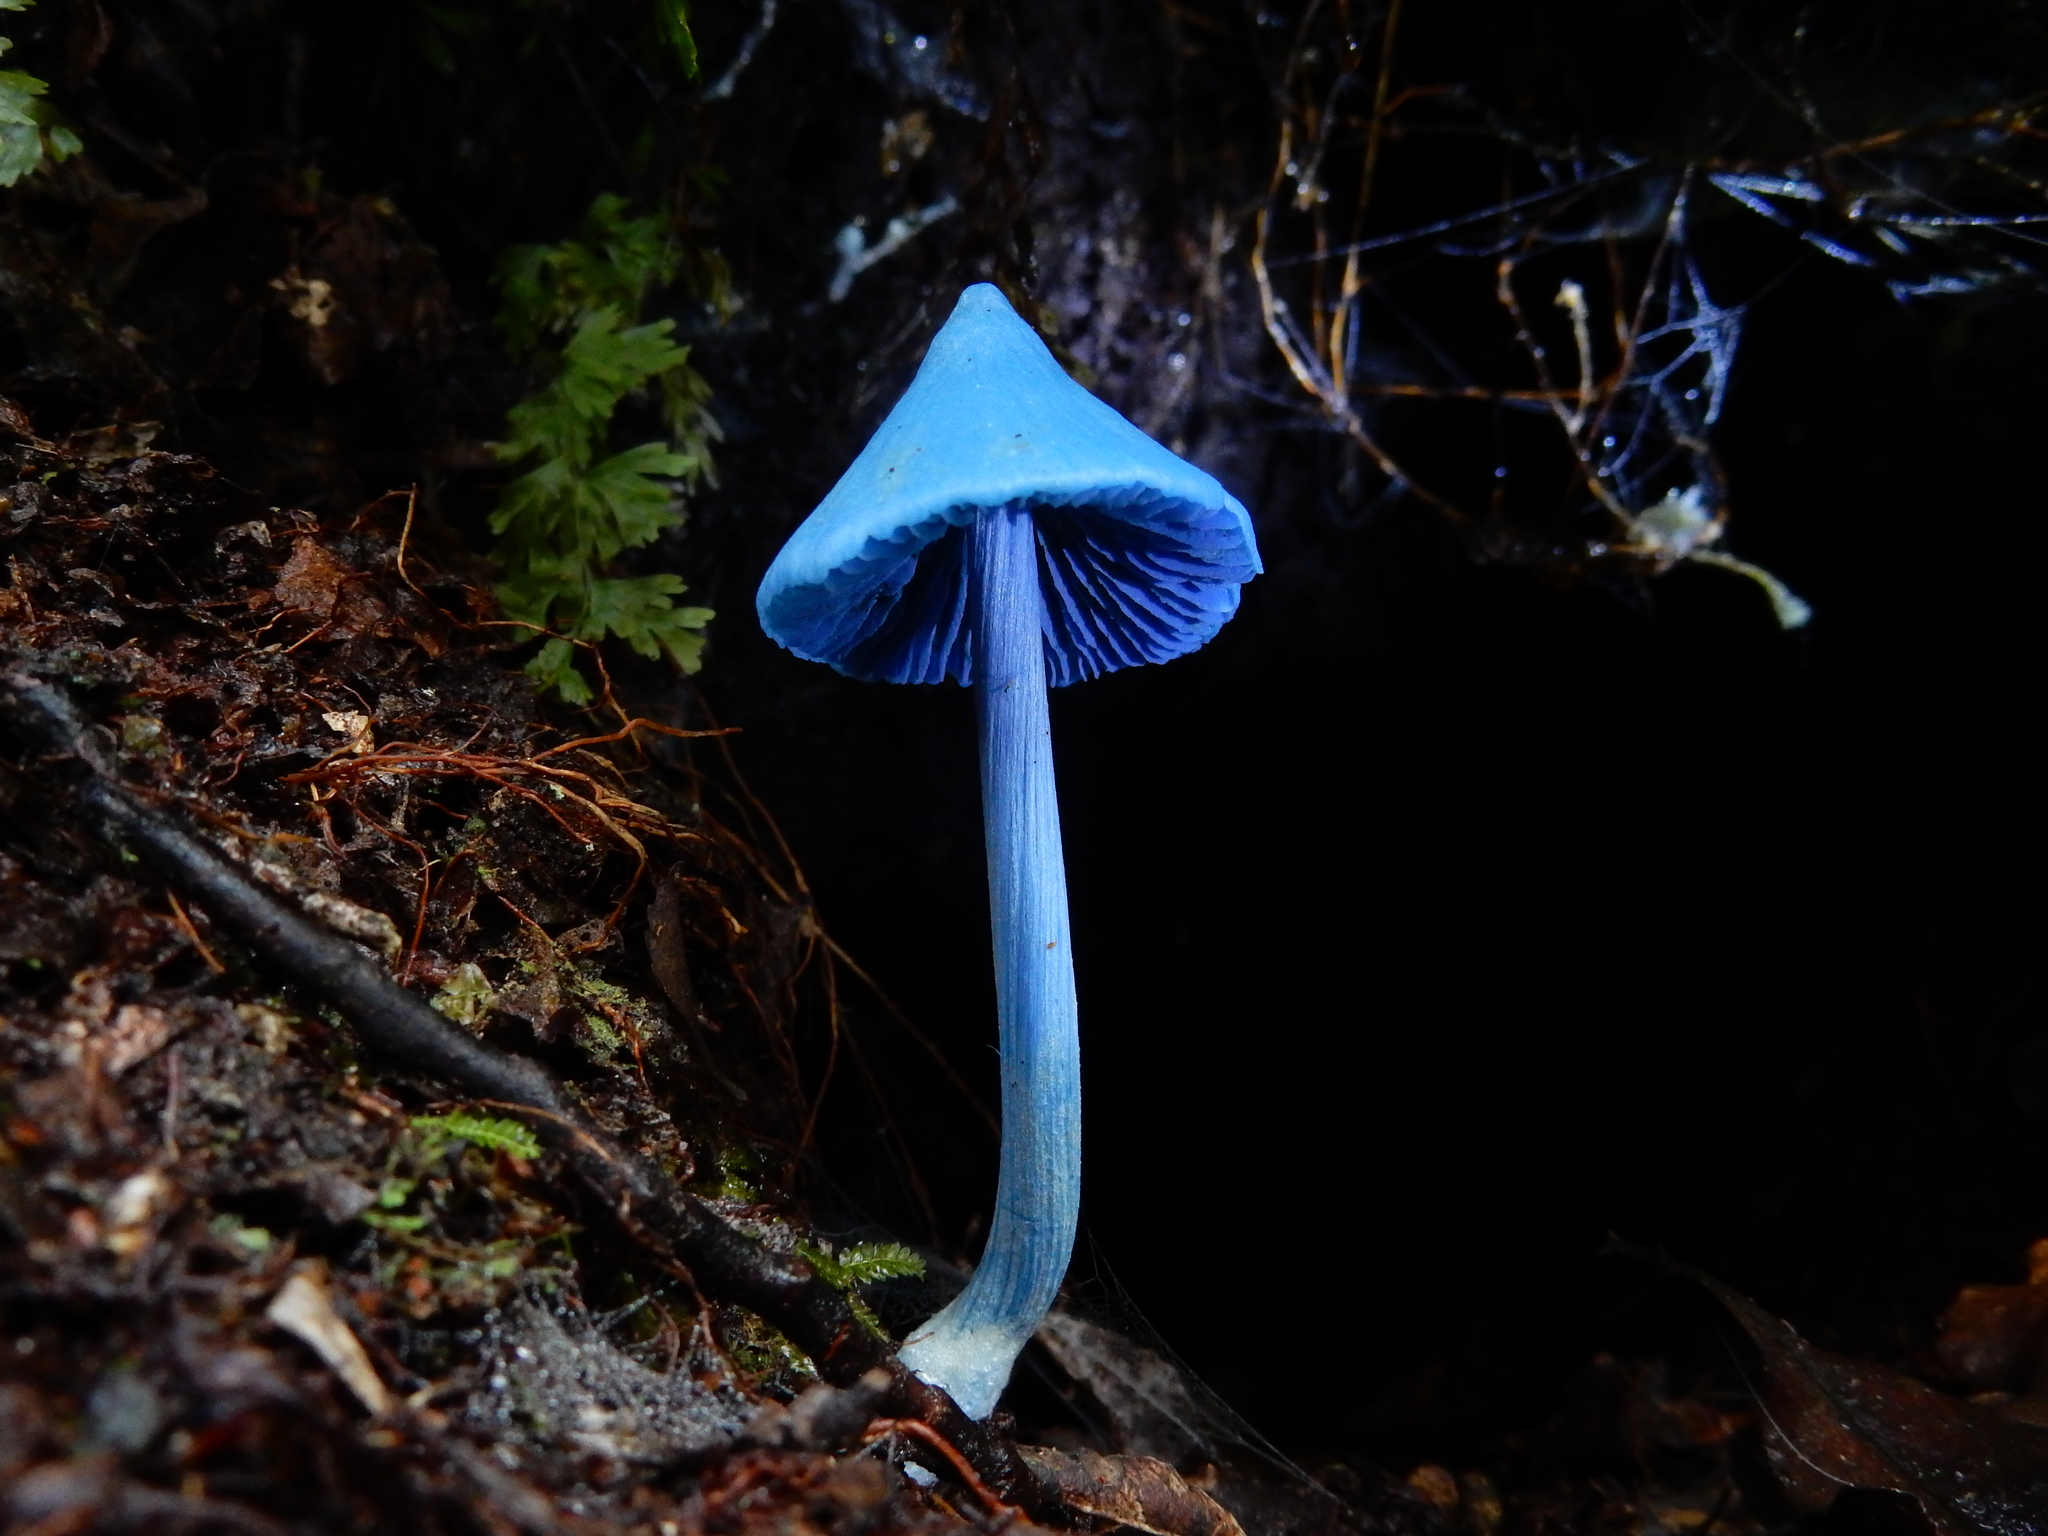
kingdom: Fungi
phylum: Basidiomycota
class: Agaricomycetes
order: Agaricales
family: Entolomataceae
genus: Entoloma
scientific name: Entoloma hochstetteri
